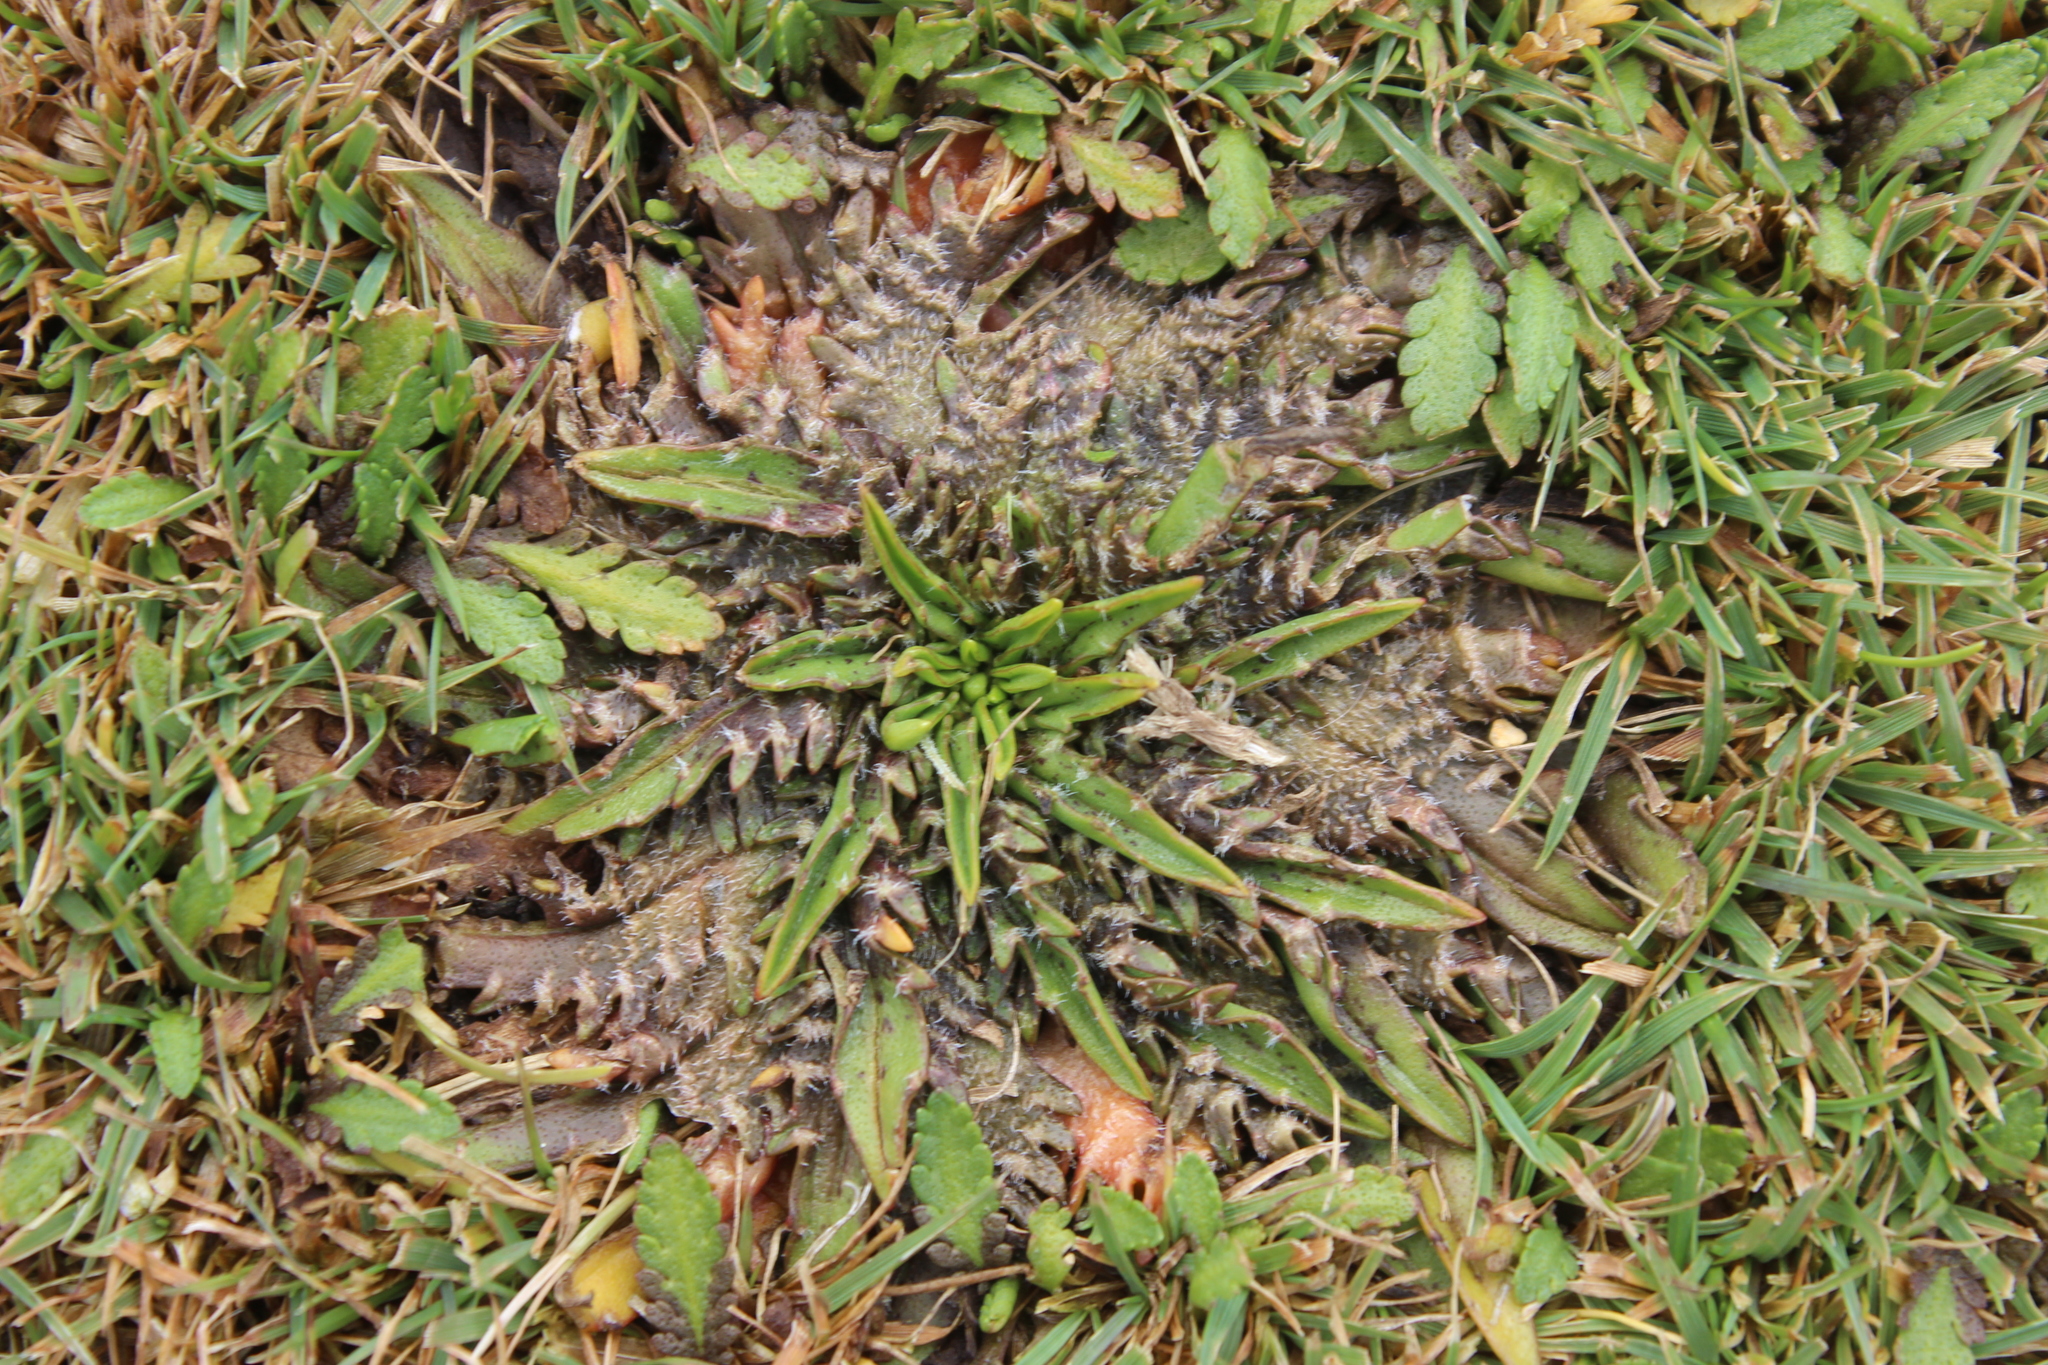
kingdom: Plantae
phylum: Tracheophyta
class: Magnoliopsida
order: Lamiales
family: Plantaginaceae
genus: Plantago
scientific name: Plantago triandra
